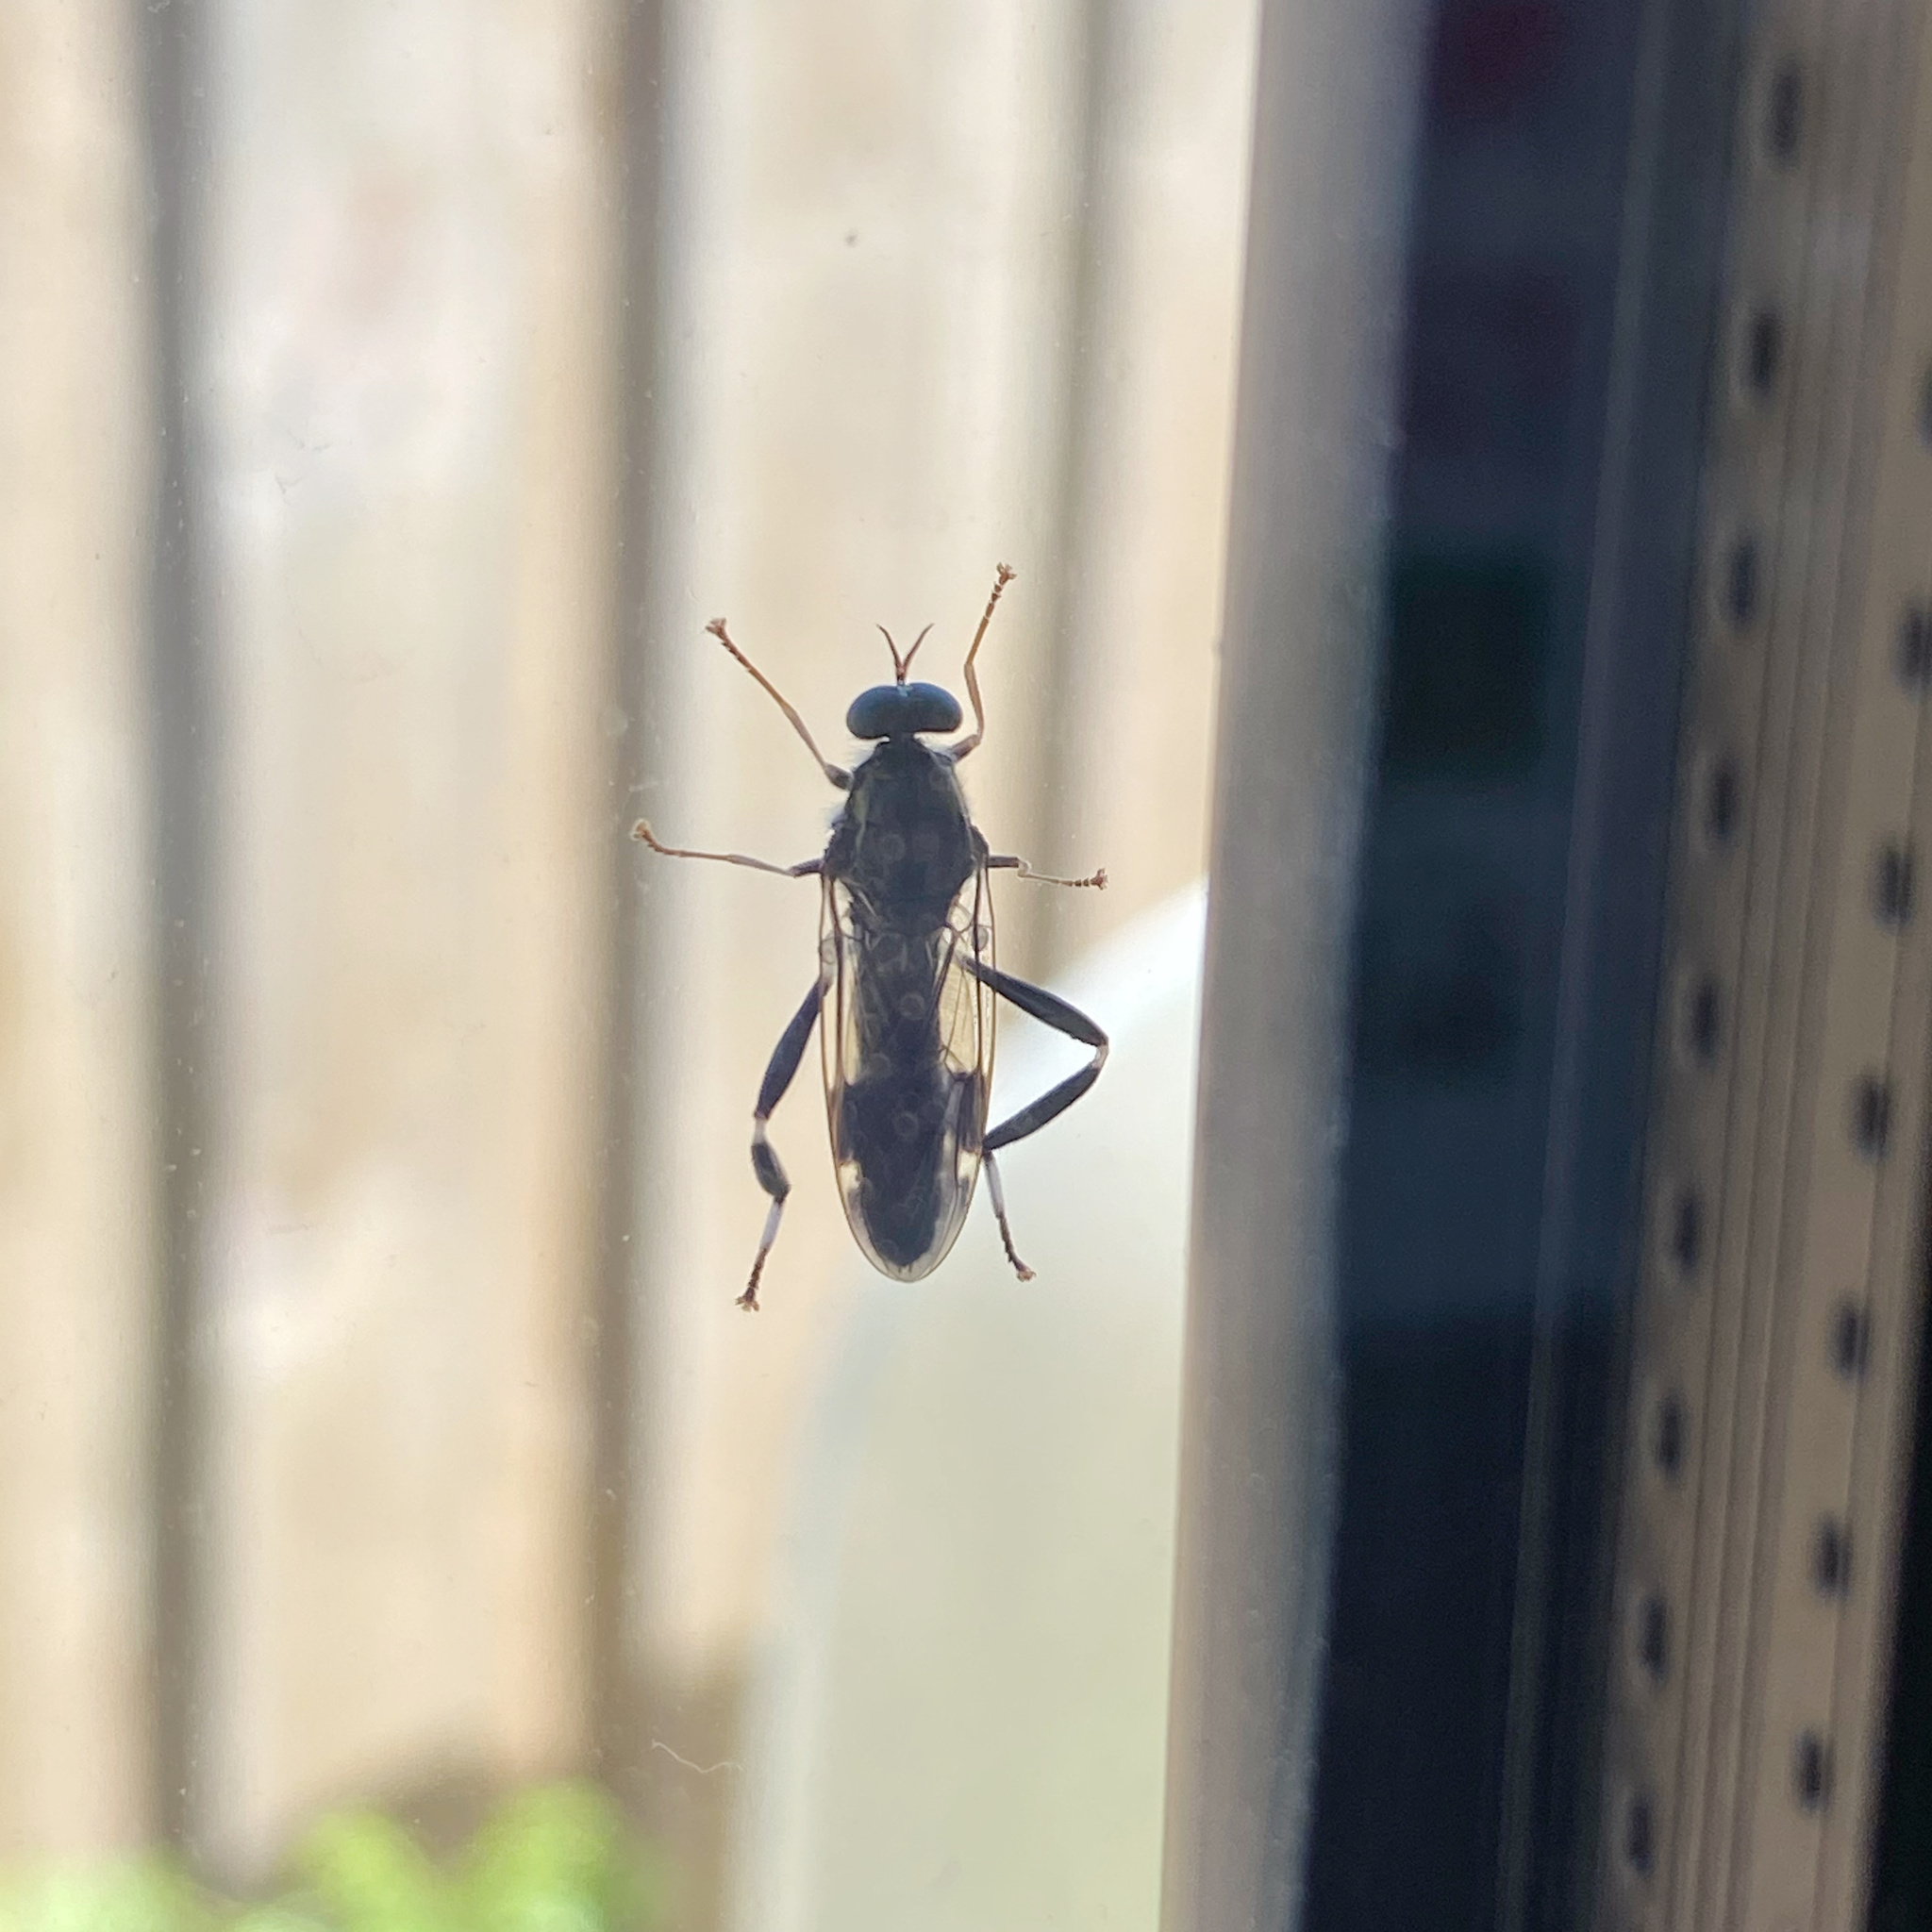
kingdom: Animalia
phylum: Arthropoda
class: Insecta
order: Diptera
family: Stratiomyidae
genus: Exaireta
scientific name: Exaireta spinigera
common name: Blue soldier fly
